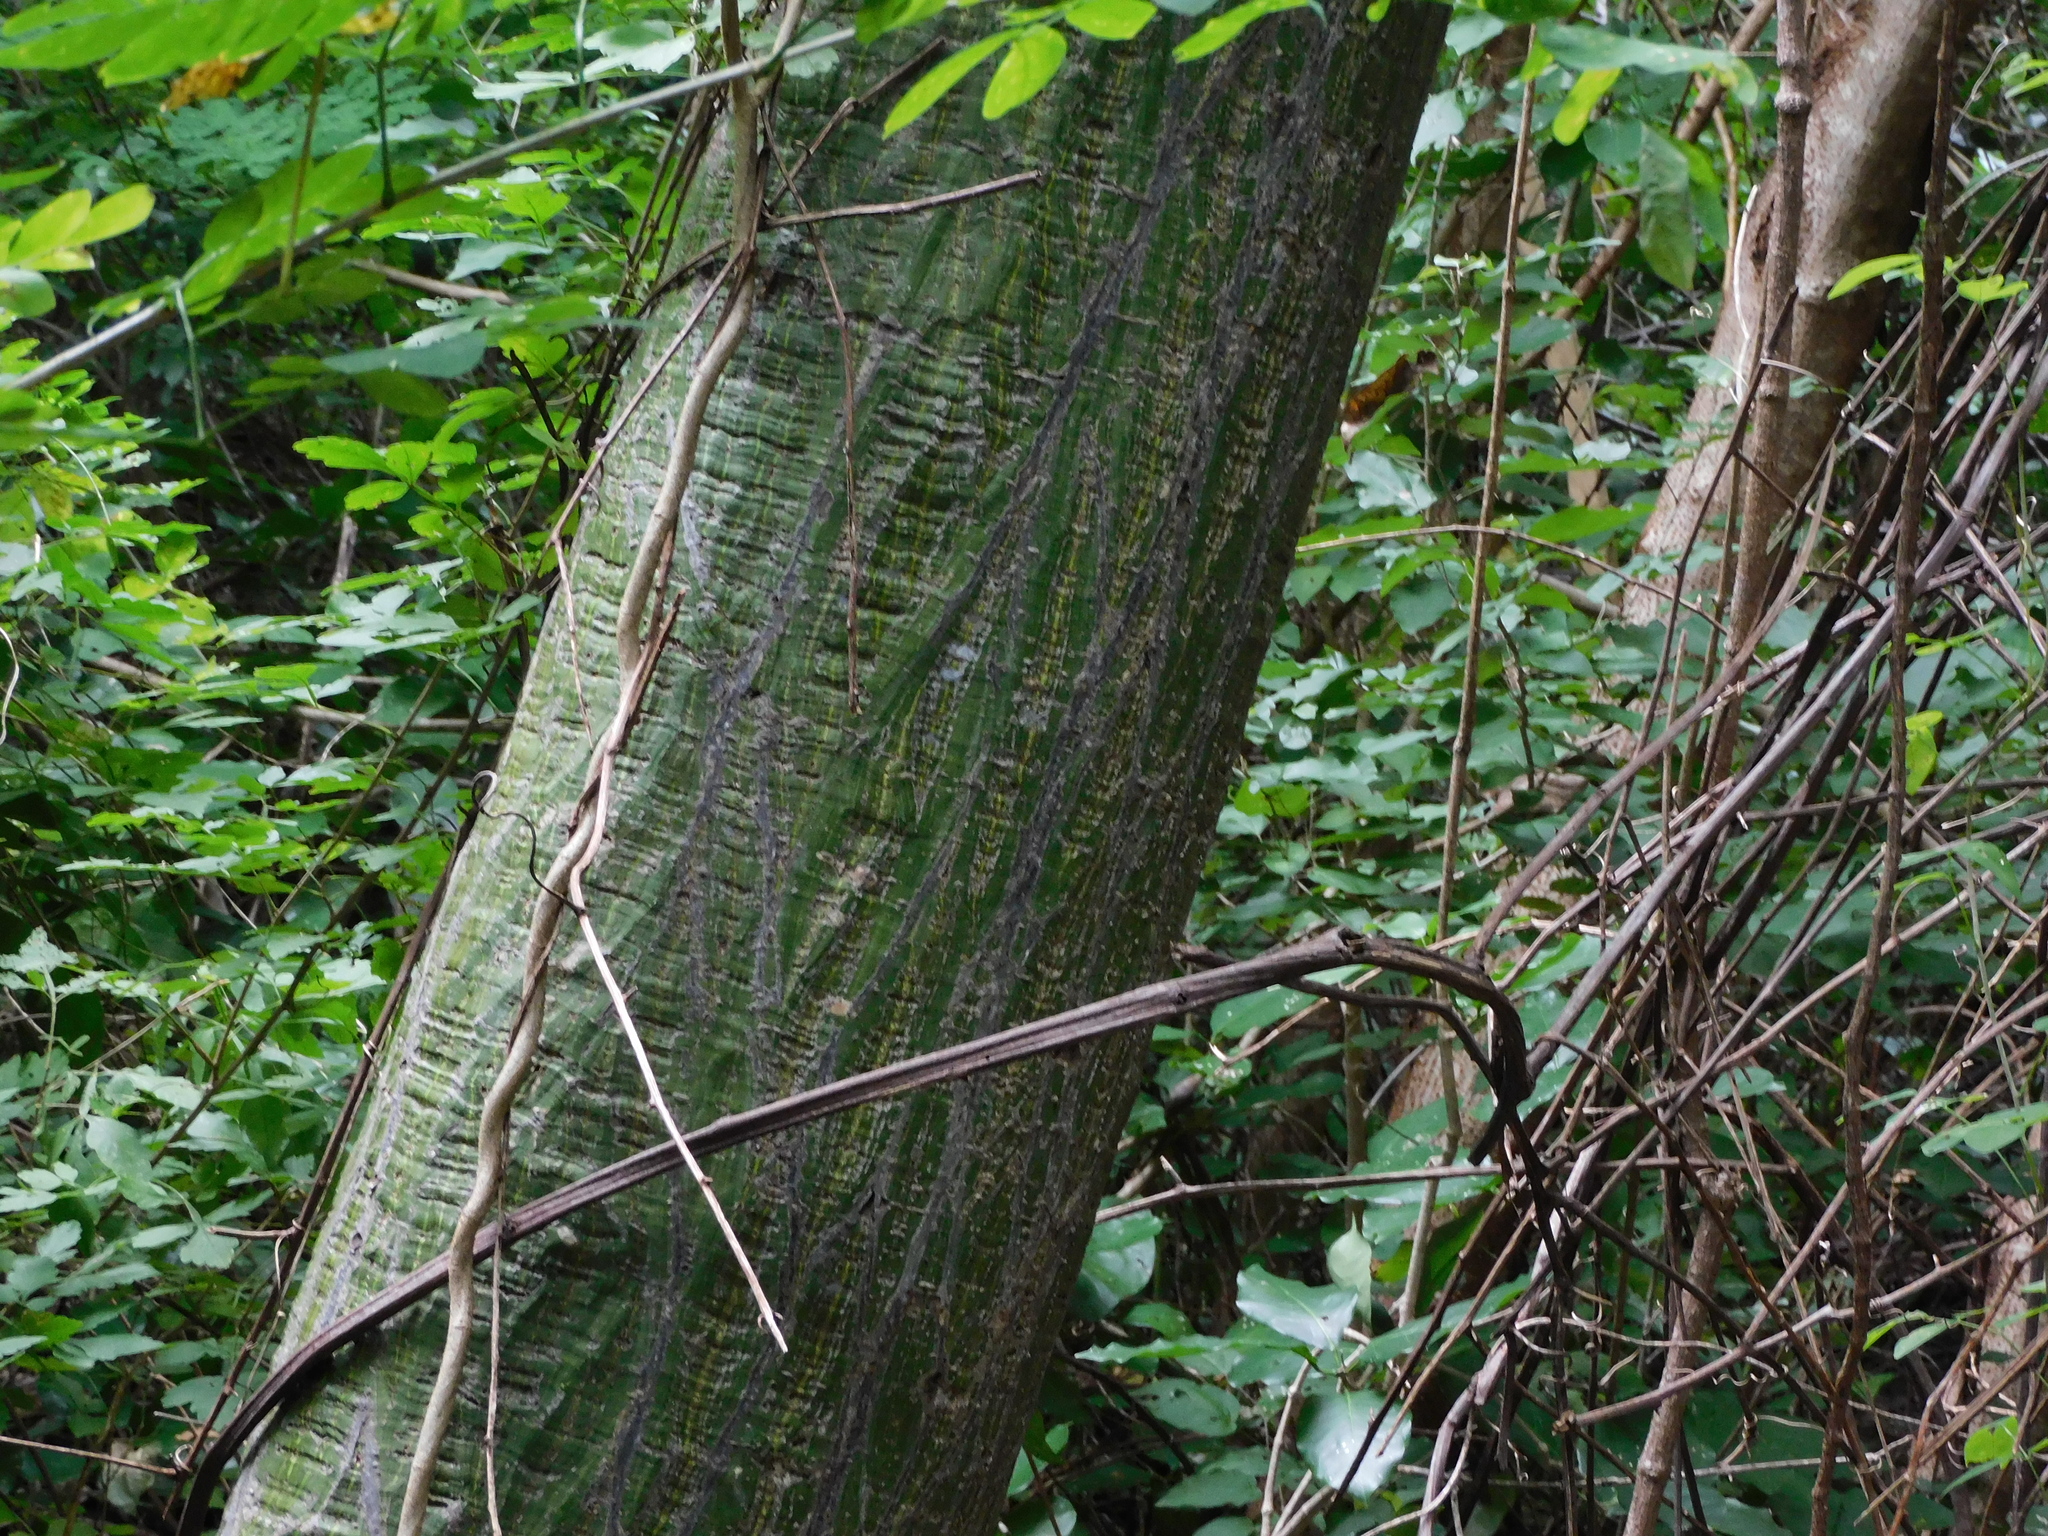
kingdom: Plantae
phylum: Tracheophyta
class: Magnoliopsida
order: Malvales
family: Malvaceae
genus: Pseudobombax
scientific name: Pseudobombax septenatum
